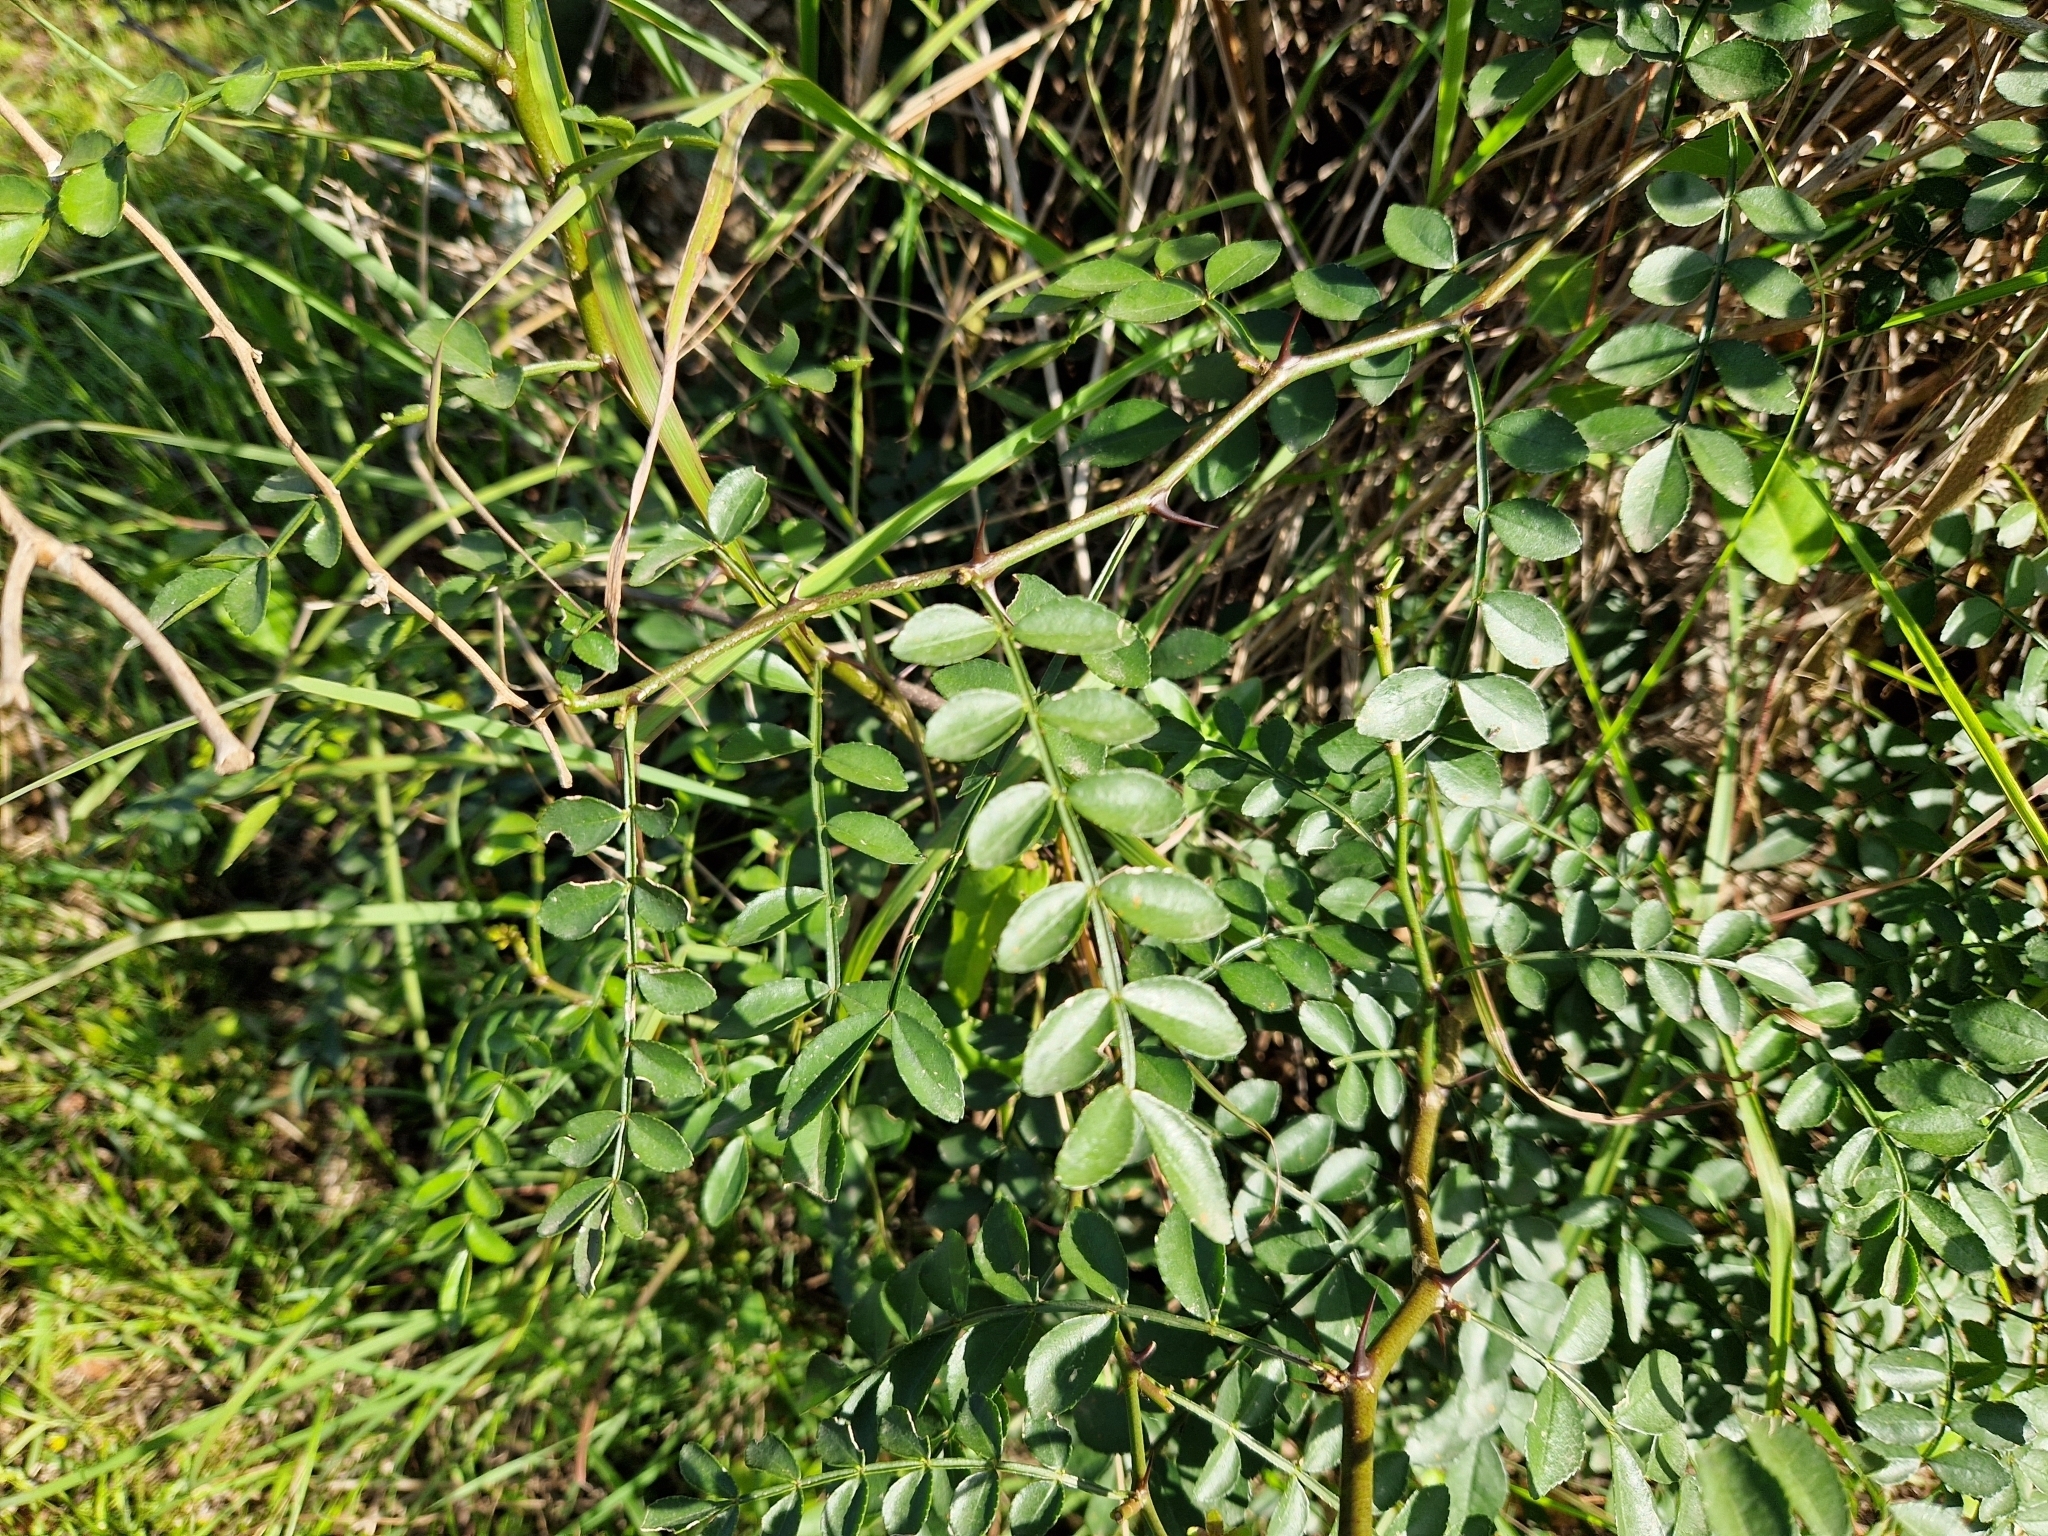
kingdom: Plantae
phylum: Tracheophyta
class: Magnoliopsida
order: Sapindales
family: Rutaceae
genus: Zanthoxylum
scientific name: Zanthoxylum fagara
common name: Lime prickly-ash
